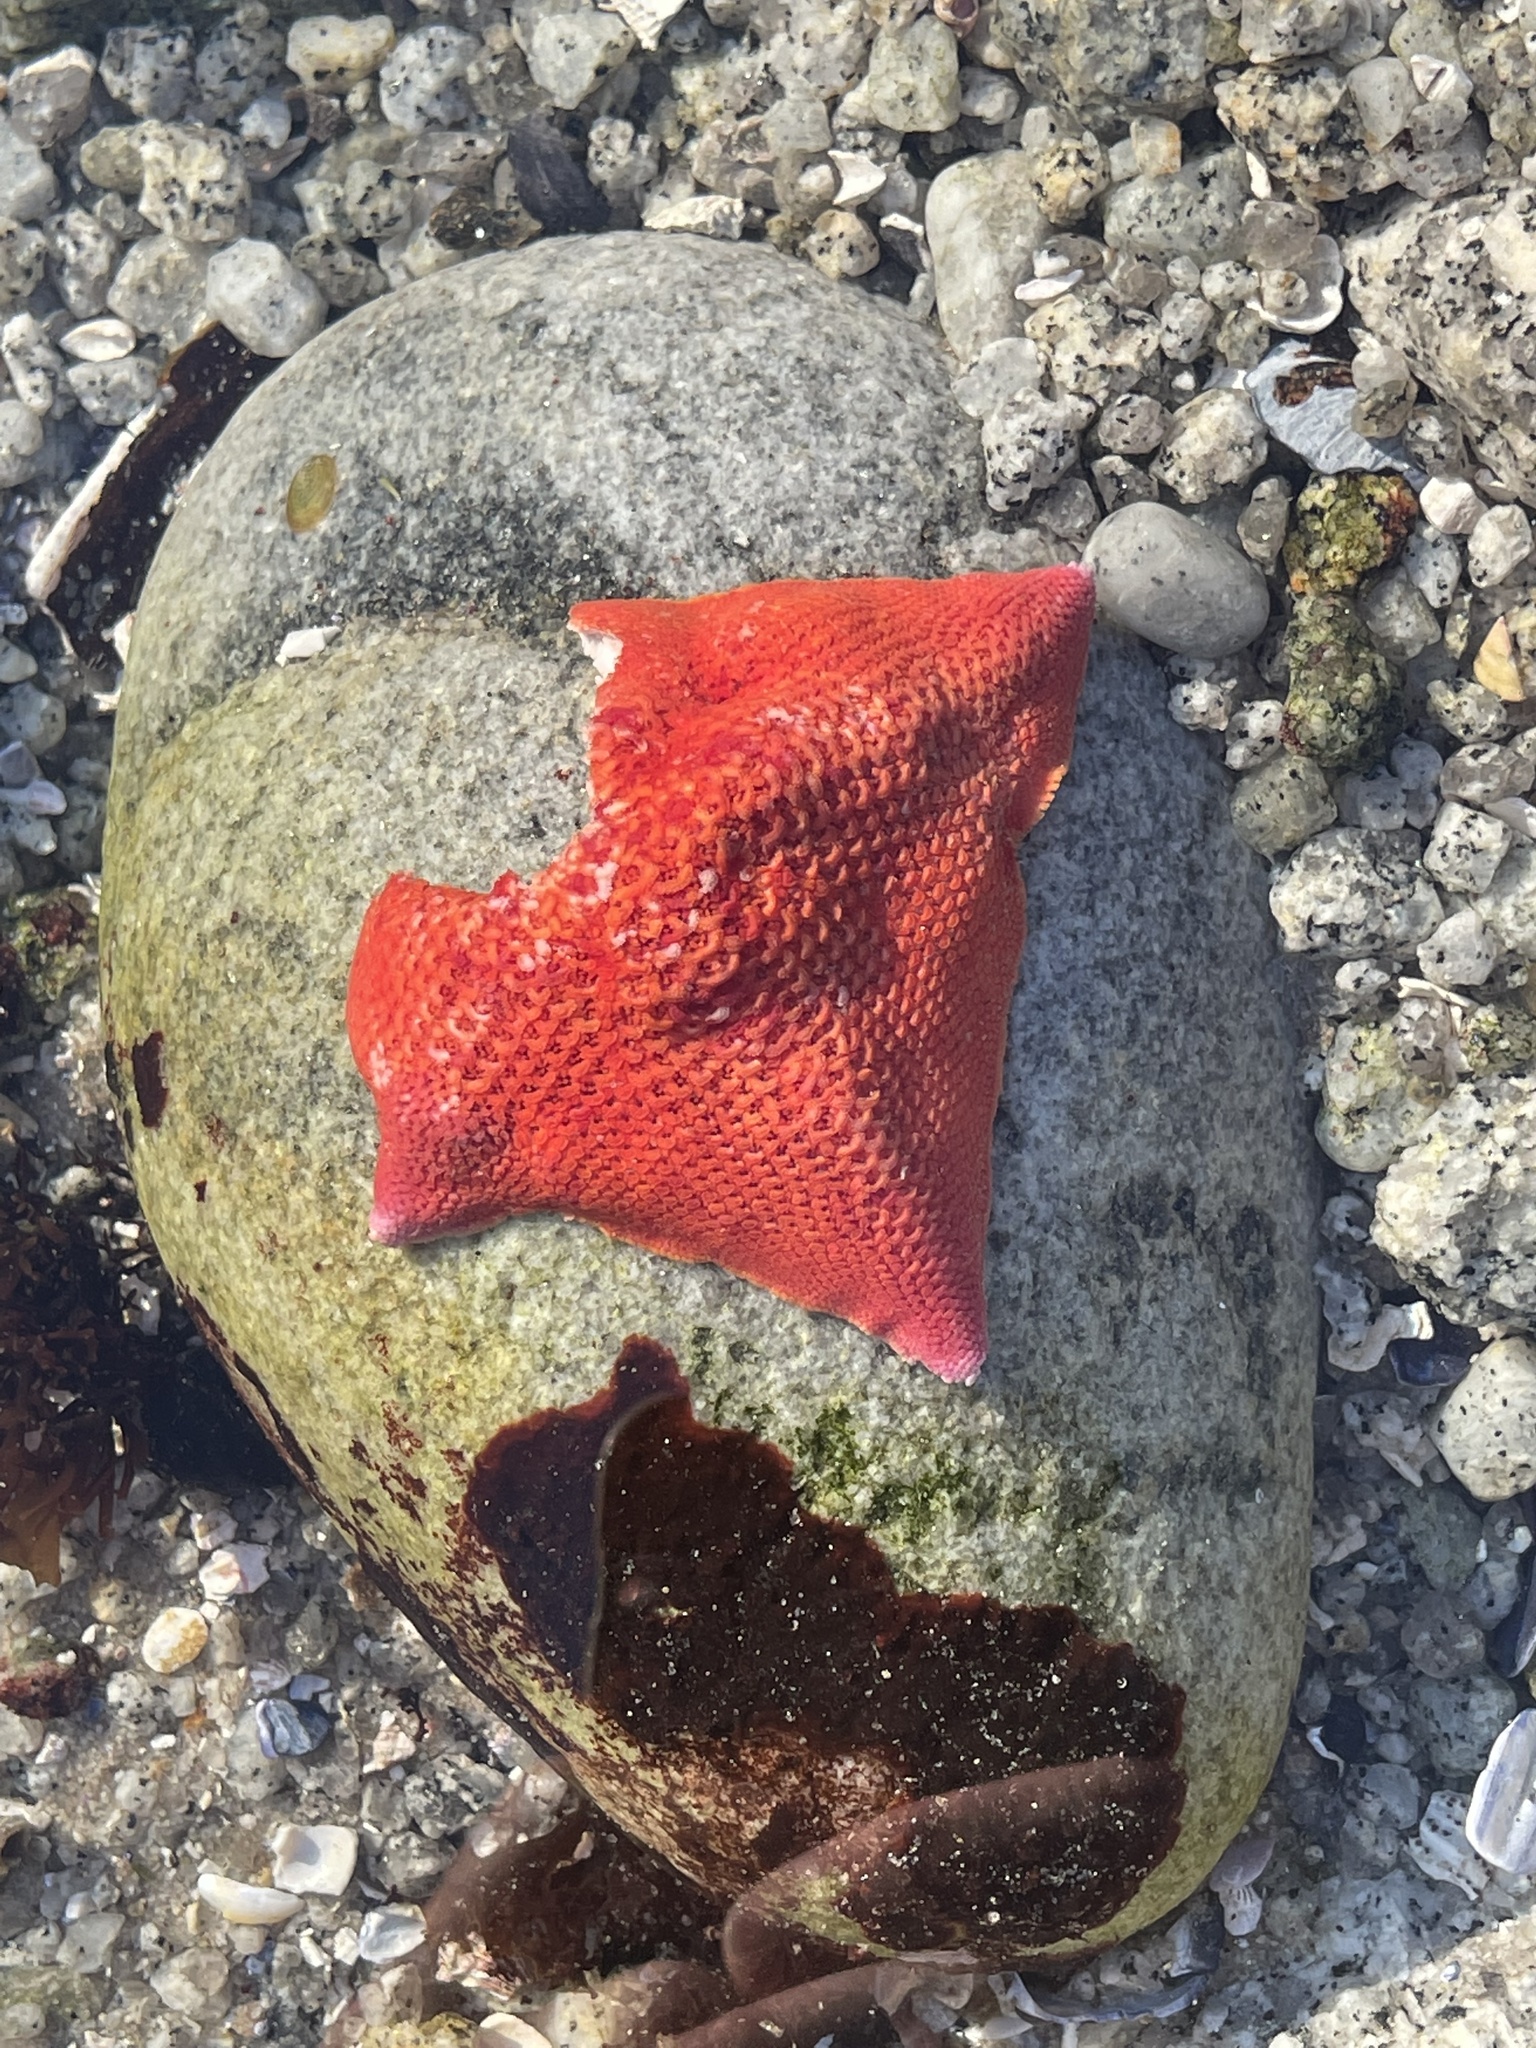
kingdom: Animalia
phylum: Echinodermata
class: Asteroidea
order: Valvatida
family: Asterinidae
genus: Patiria
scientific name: Patiria miniata
